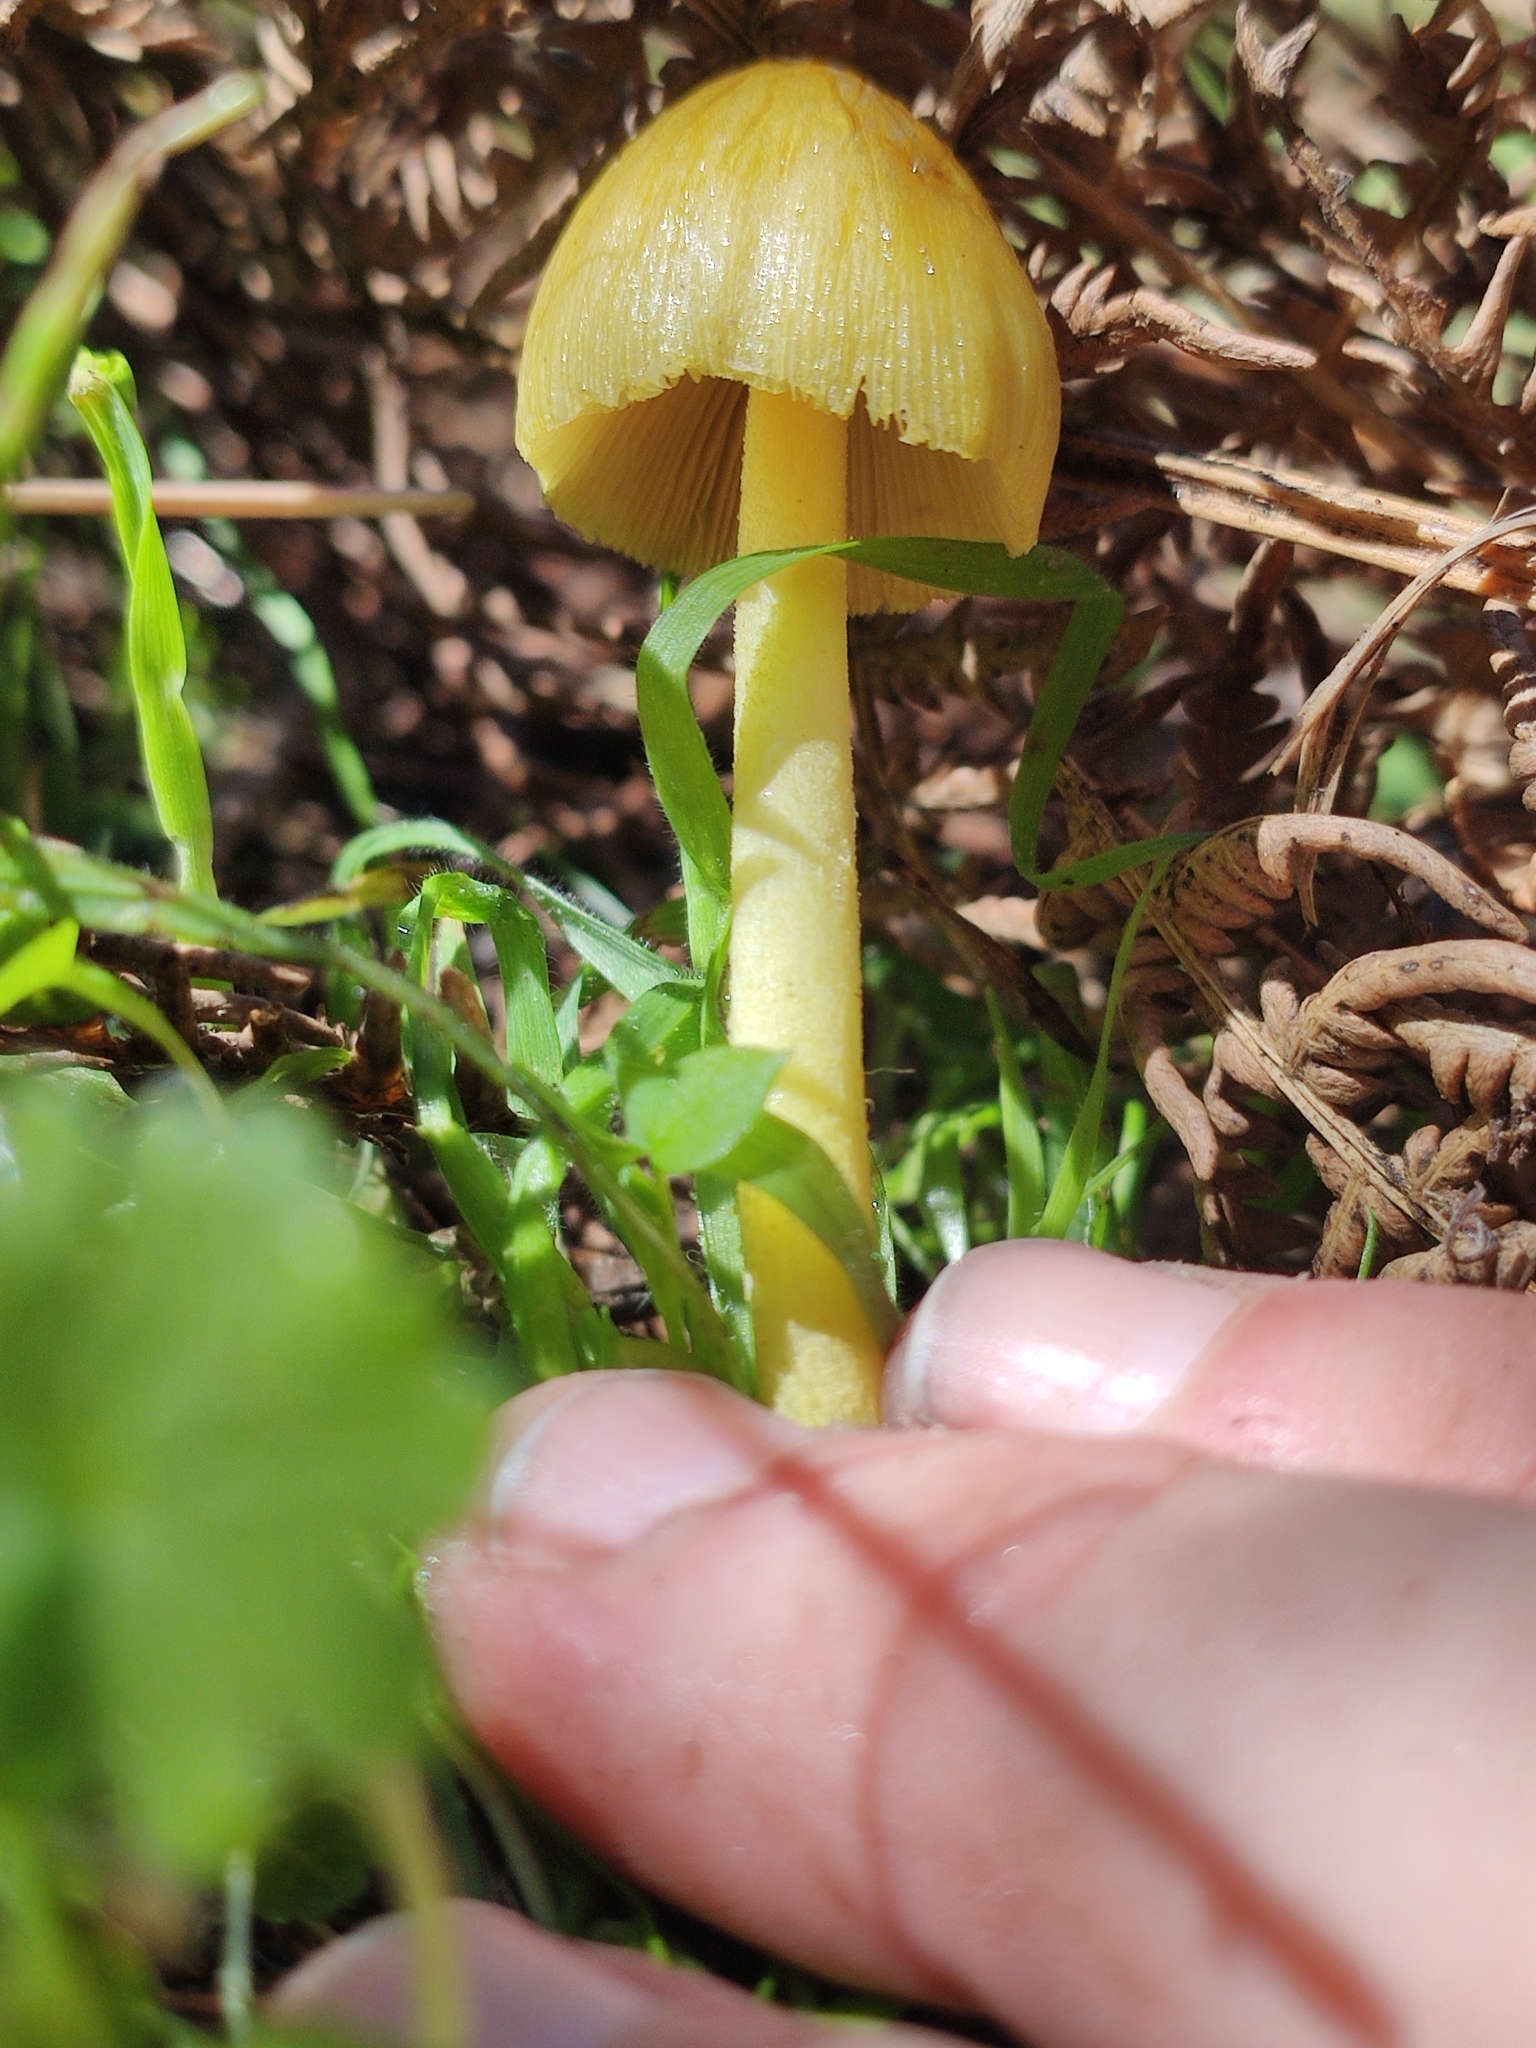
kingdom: Fungi
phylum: Basidiomycota
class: Agaricomycetes
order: Agaricales
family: Bolbitiaceae
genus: Bolbitius
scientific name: Bolbitius titubans
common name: Yellow fieldcap
